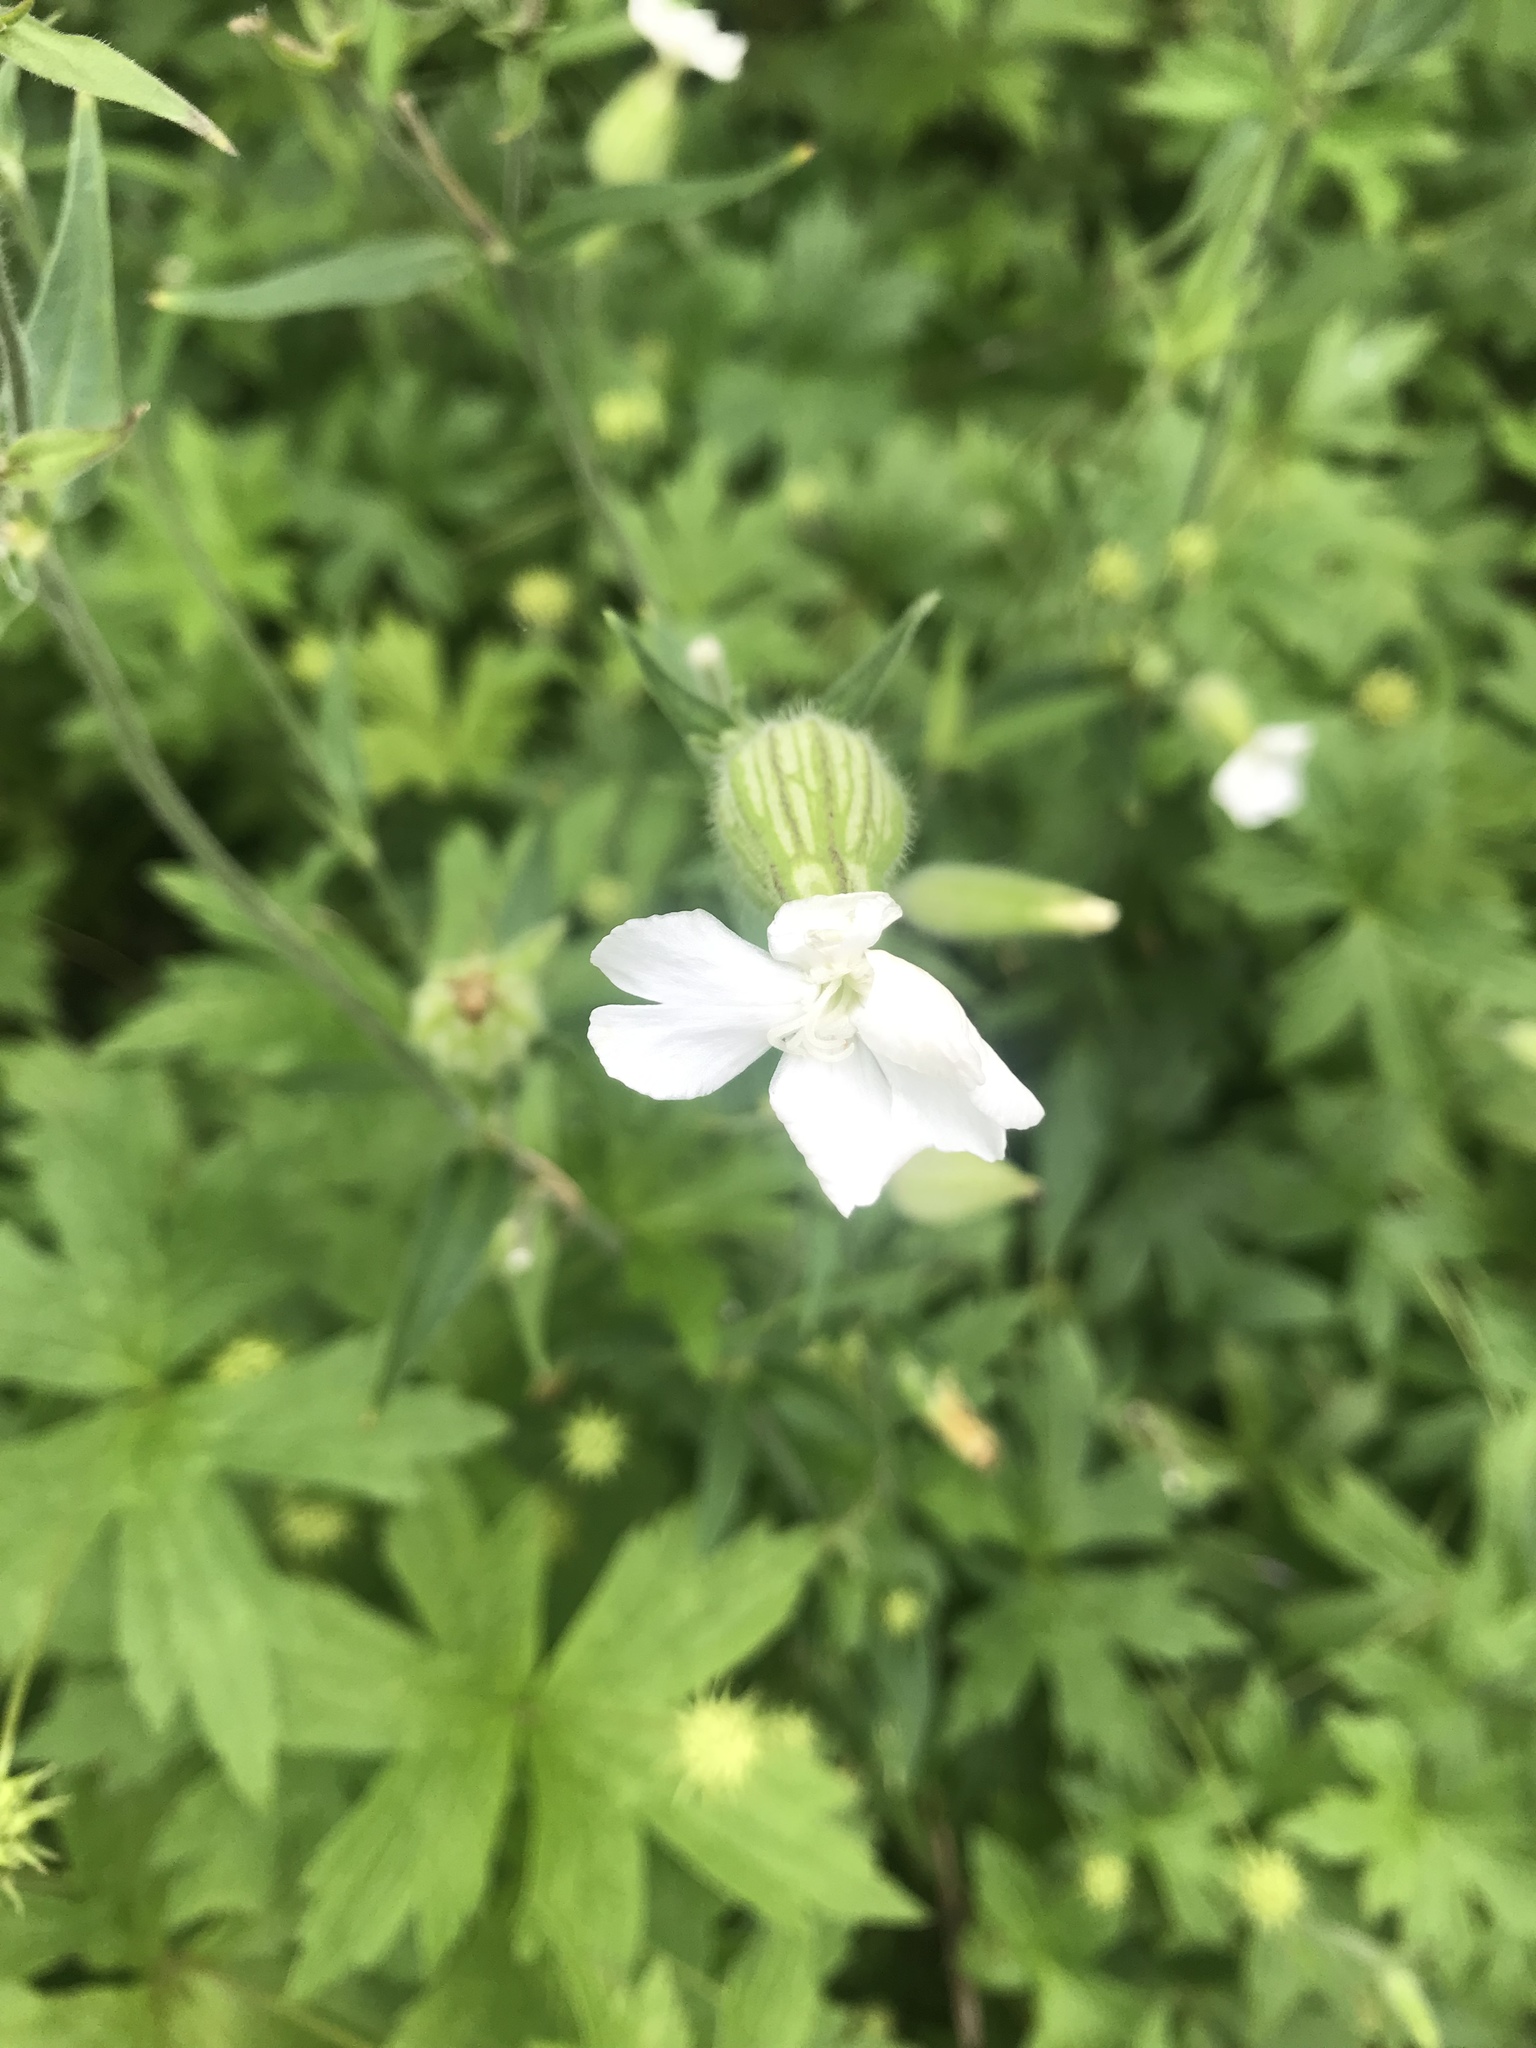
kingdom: Plantae
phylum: Tracheophyta
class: Magnoliopsida
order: Caryophyllales
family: Caryophyllaceae
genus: Silene
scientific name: Silene latifolia
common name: White campion
